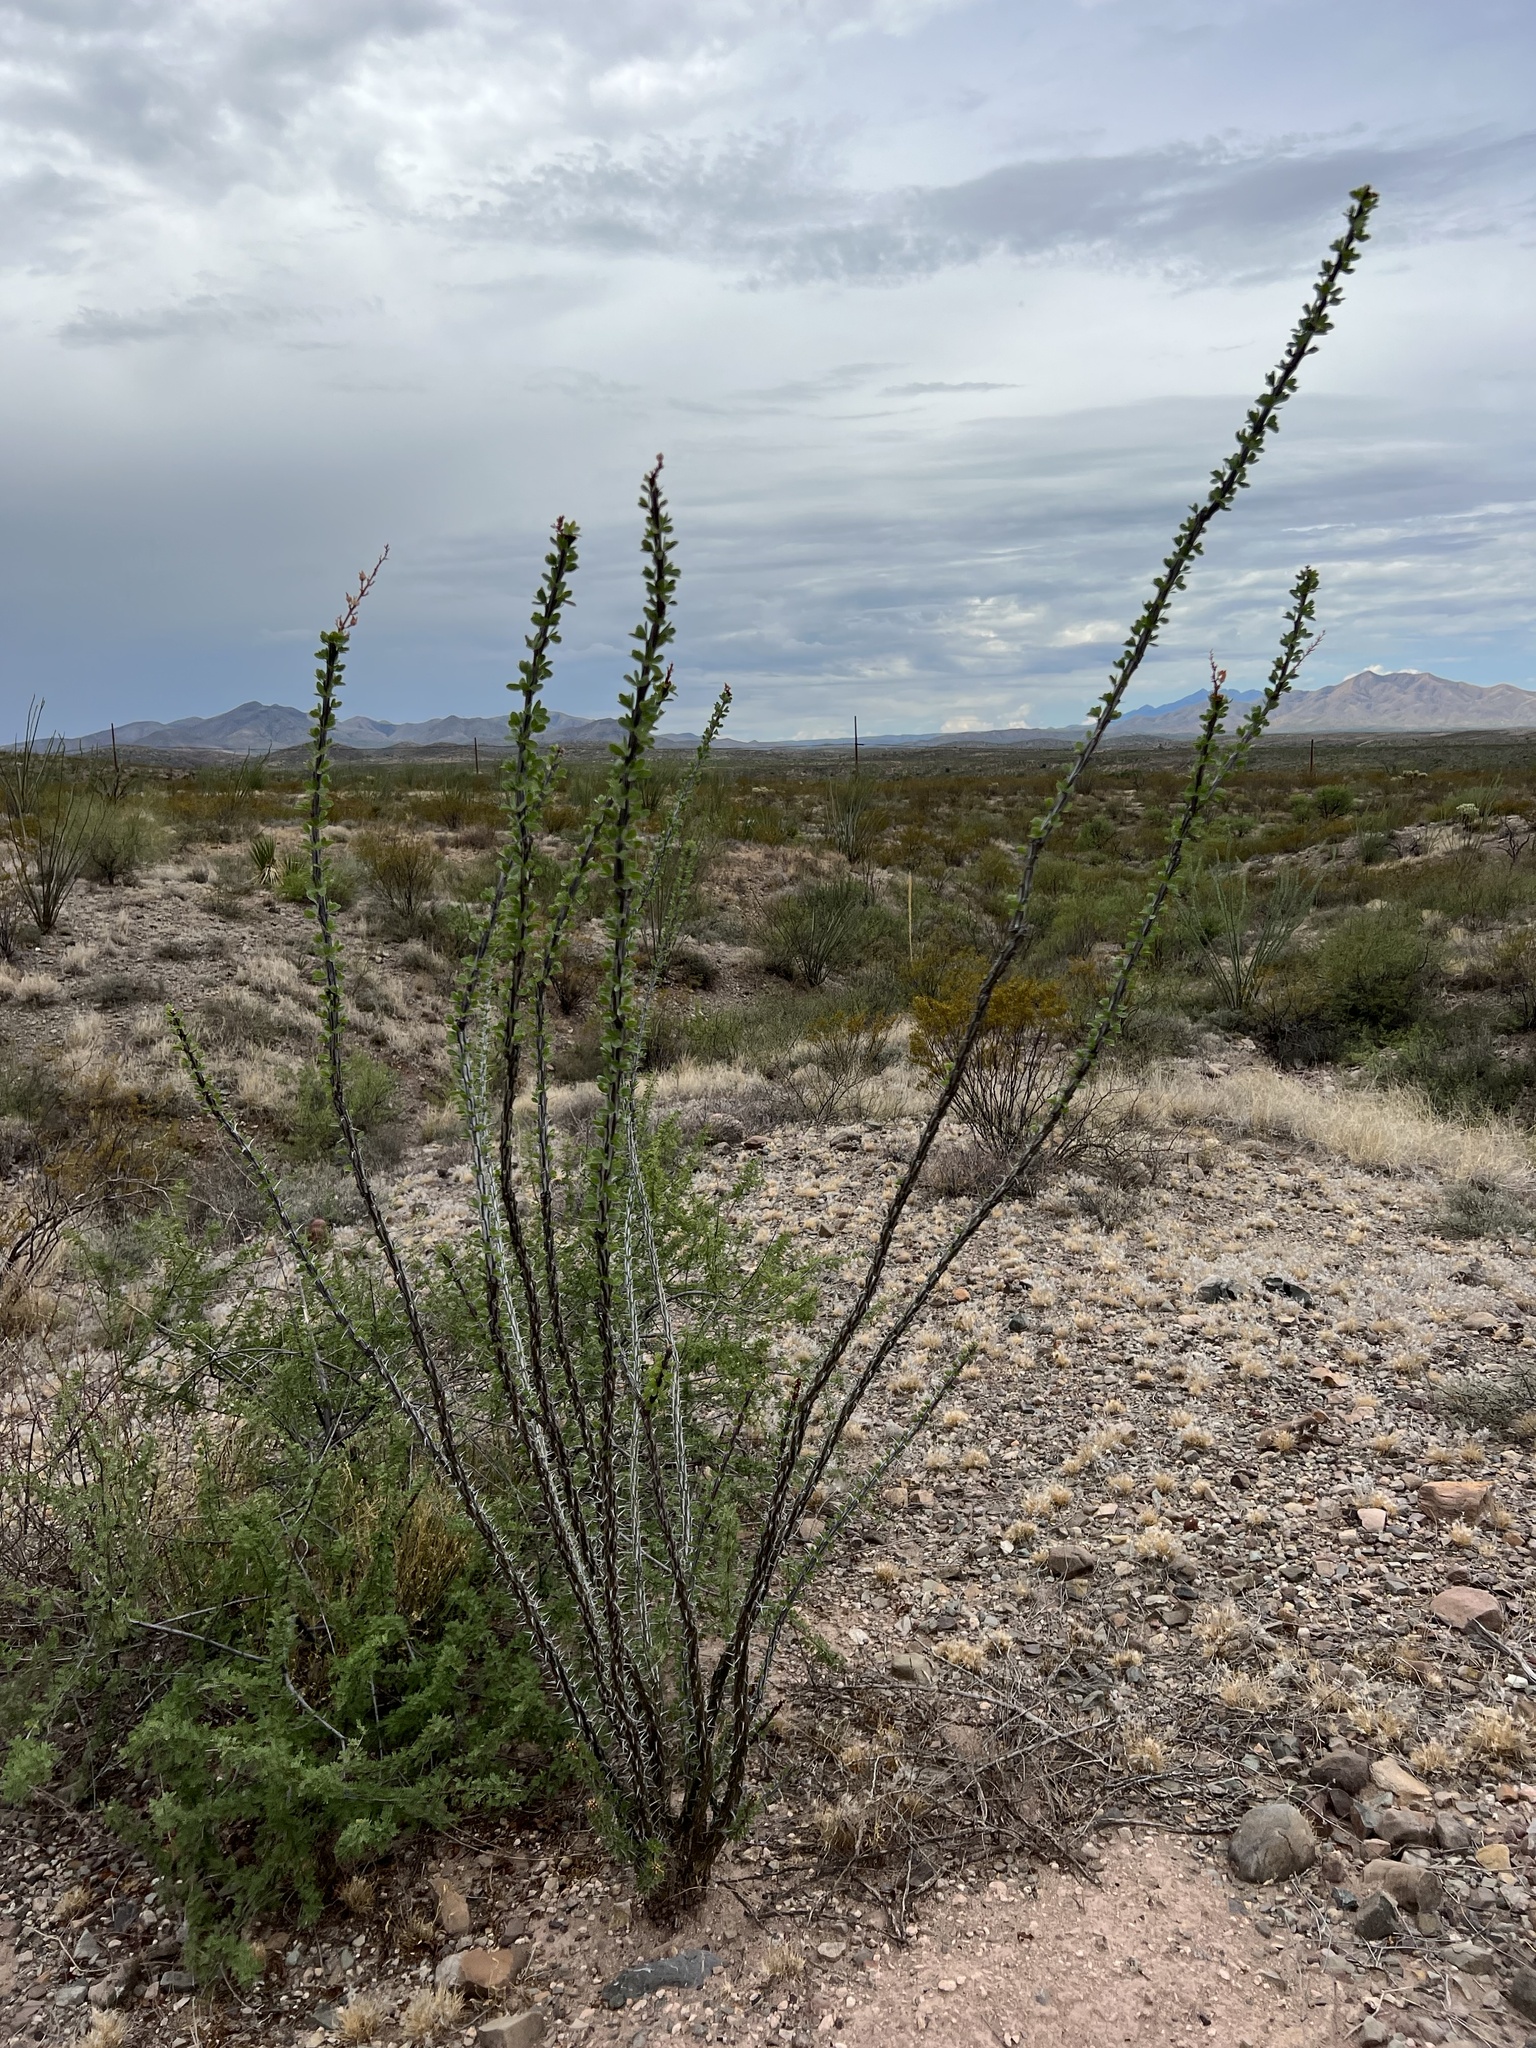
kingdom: Plantae
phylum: Tracheophyta
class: Magnoliopsida
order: Ericales
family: Fouquieriaceae
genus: Fouquieria
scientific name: Fouquieria splendens
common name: Vine-cactus
